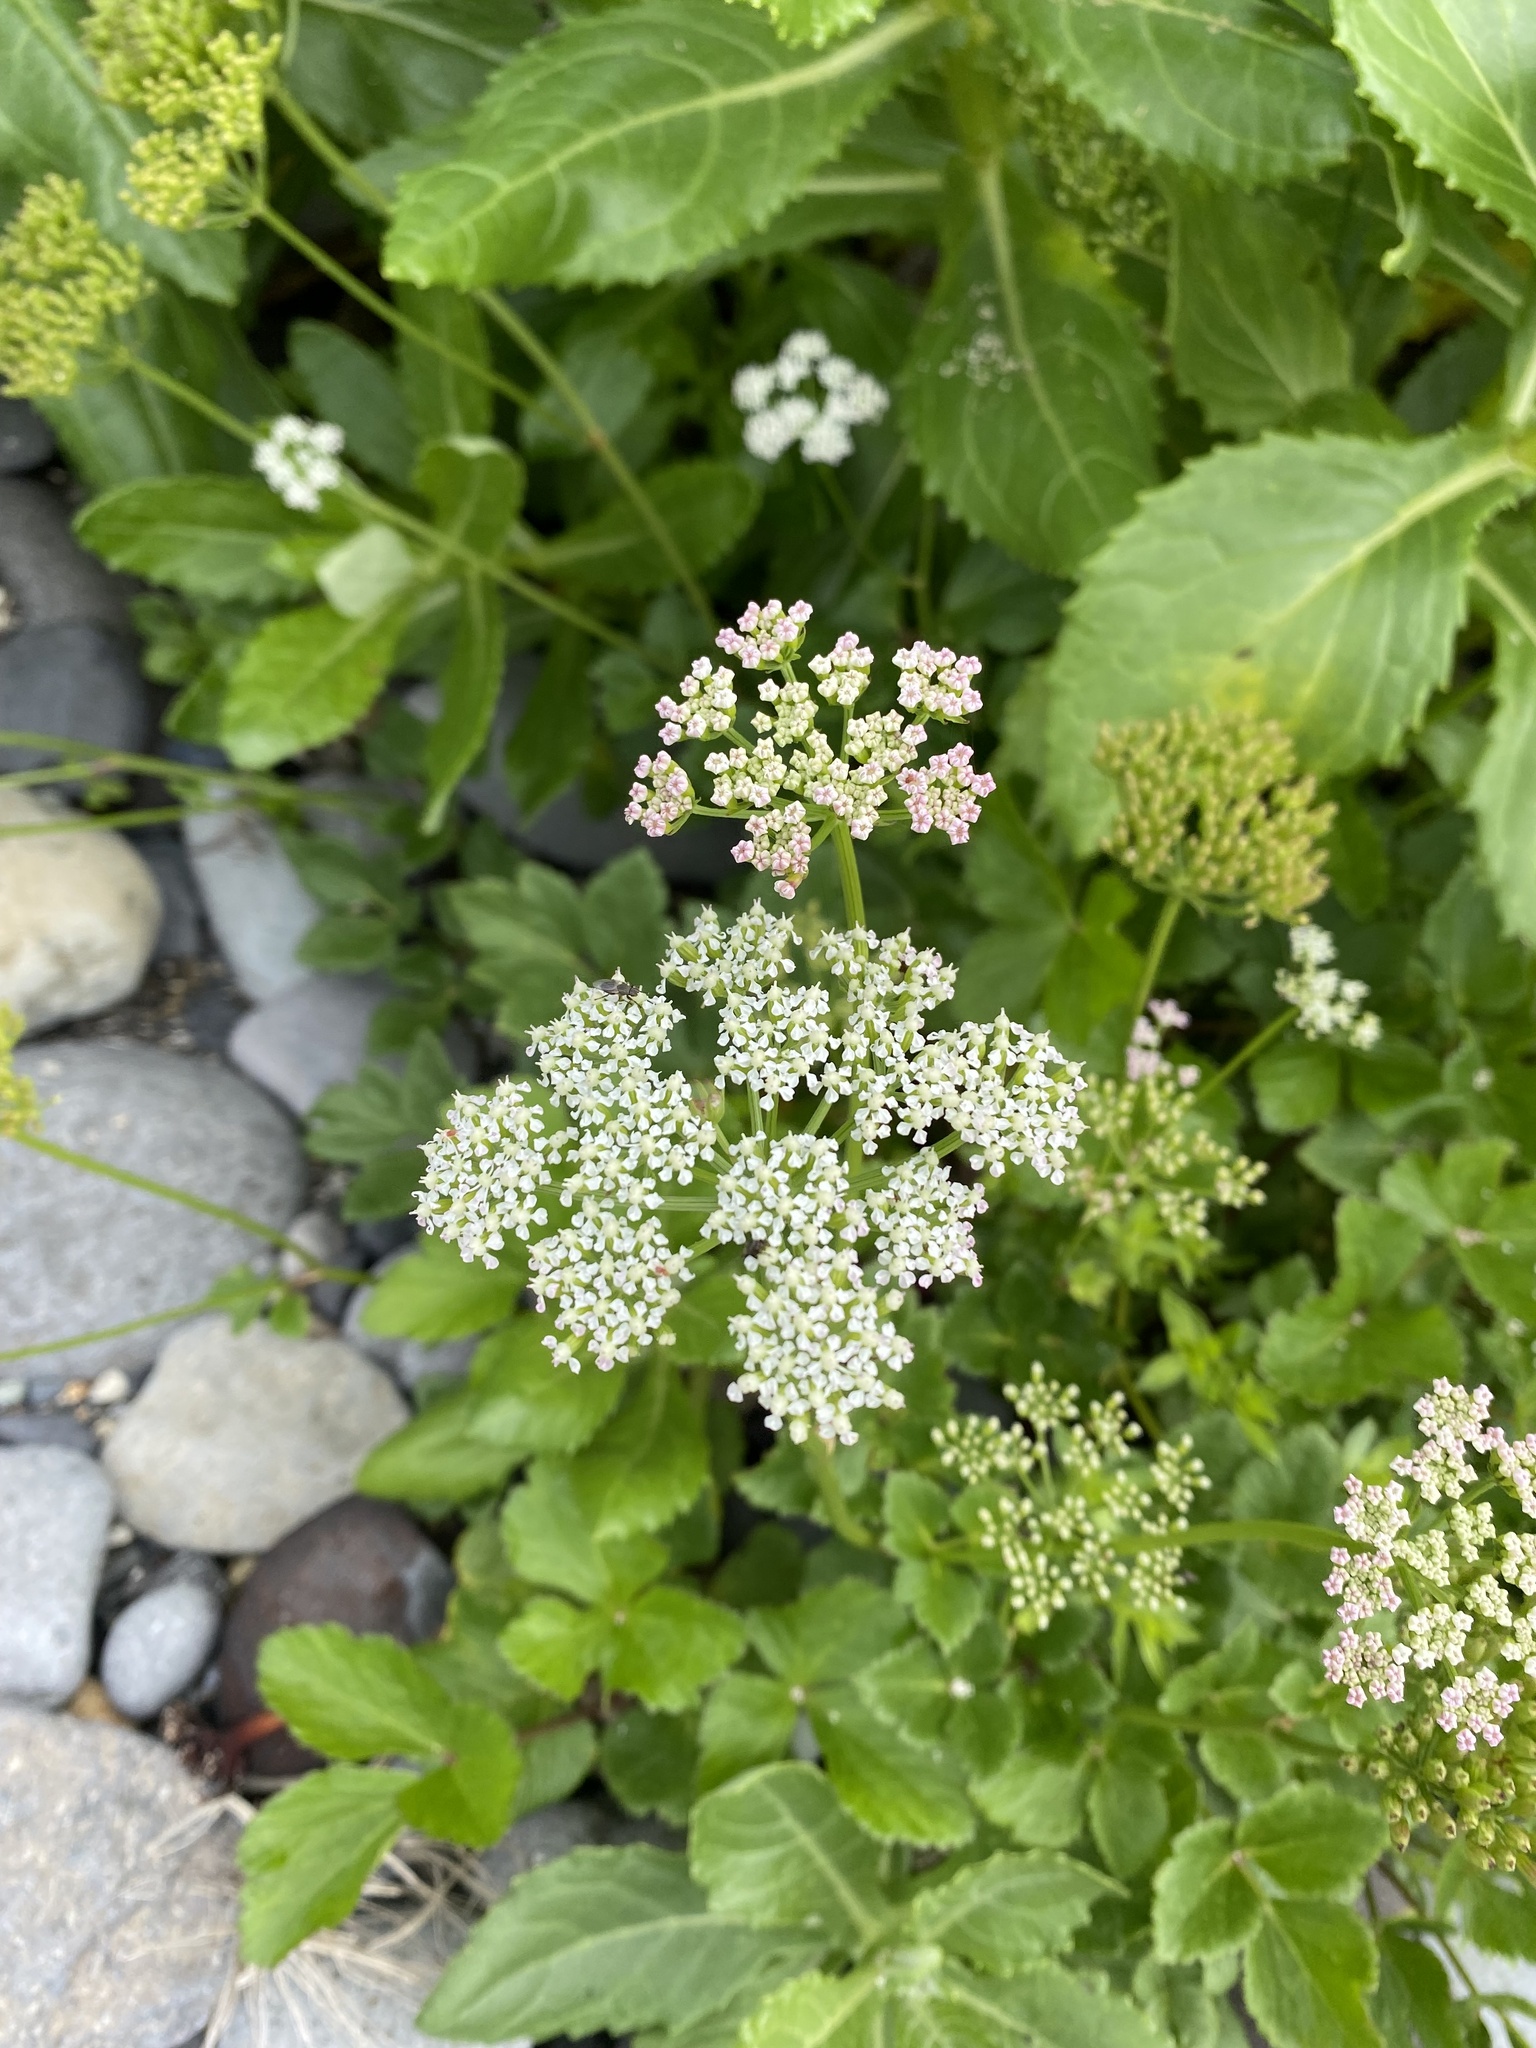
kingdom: Plantae
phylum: Tracheophyta
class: Magnoliopsida
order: Apiales
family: Apiaceae
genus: Ligusticum
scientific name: Ligusticum scothicum
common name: Beach lovage
